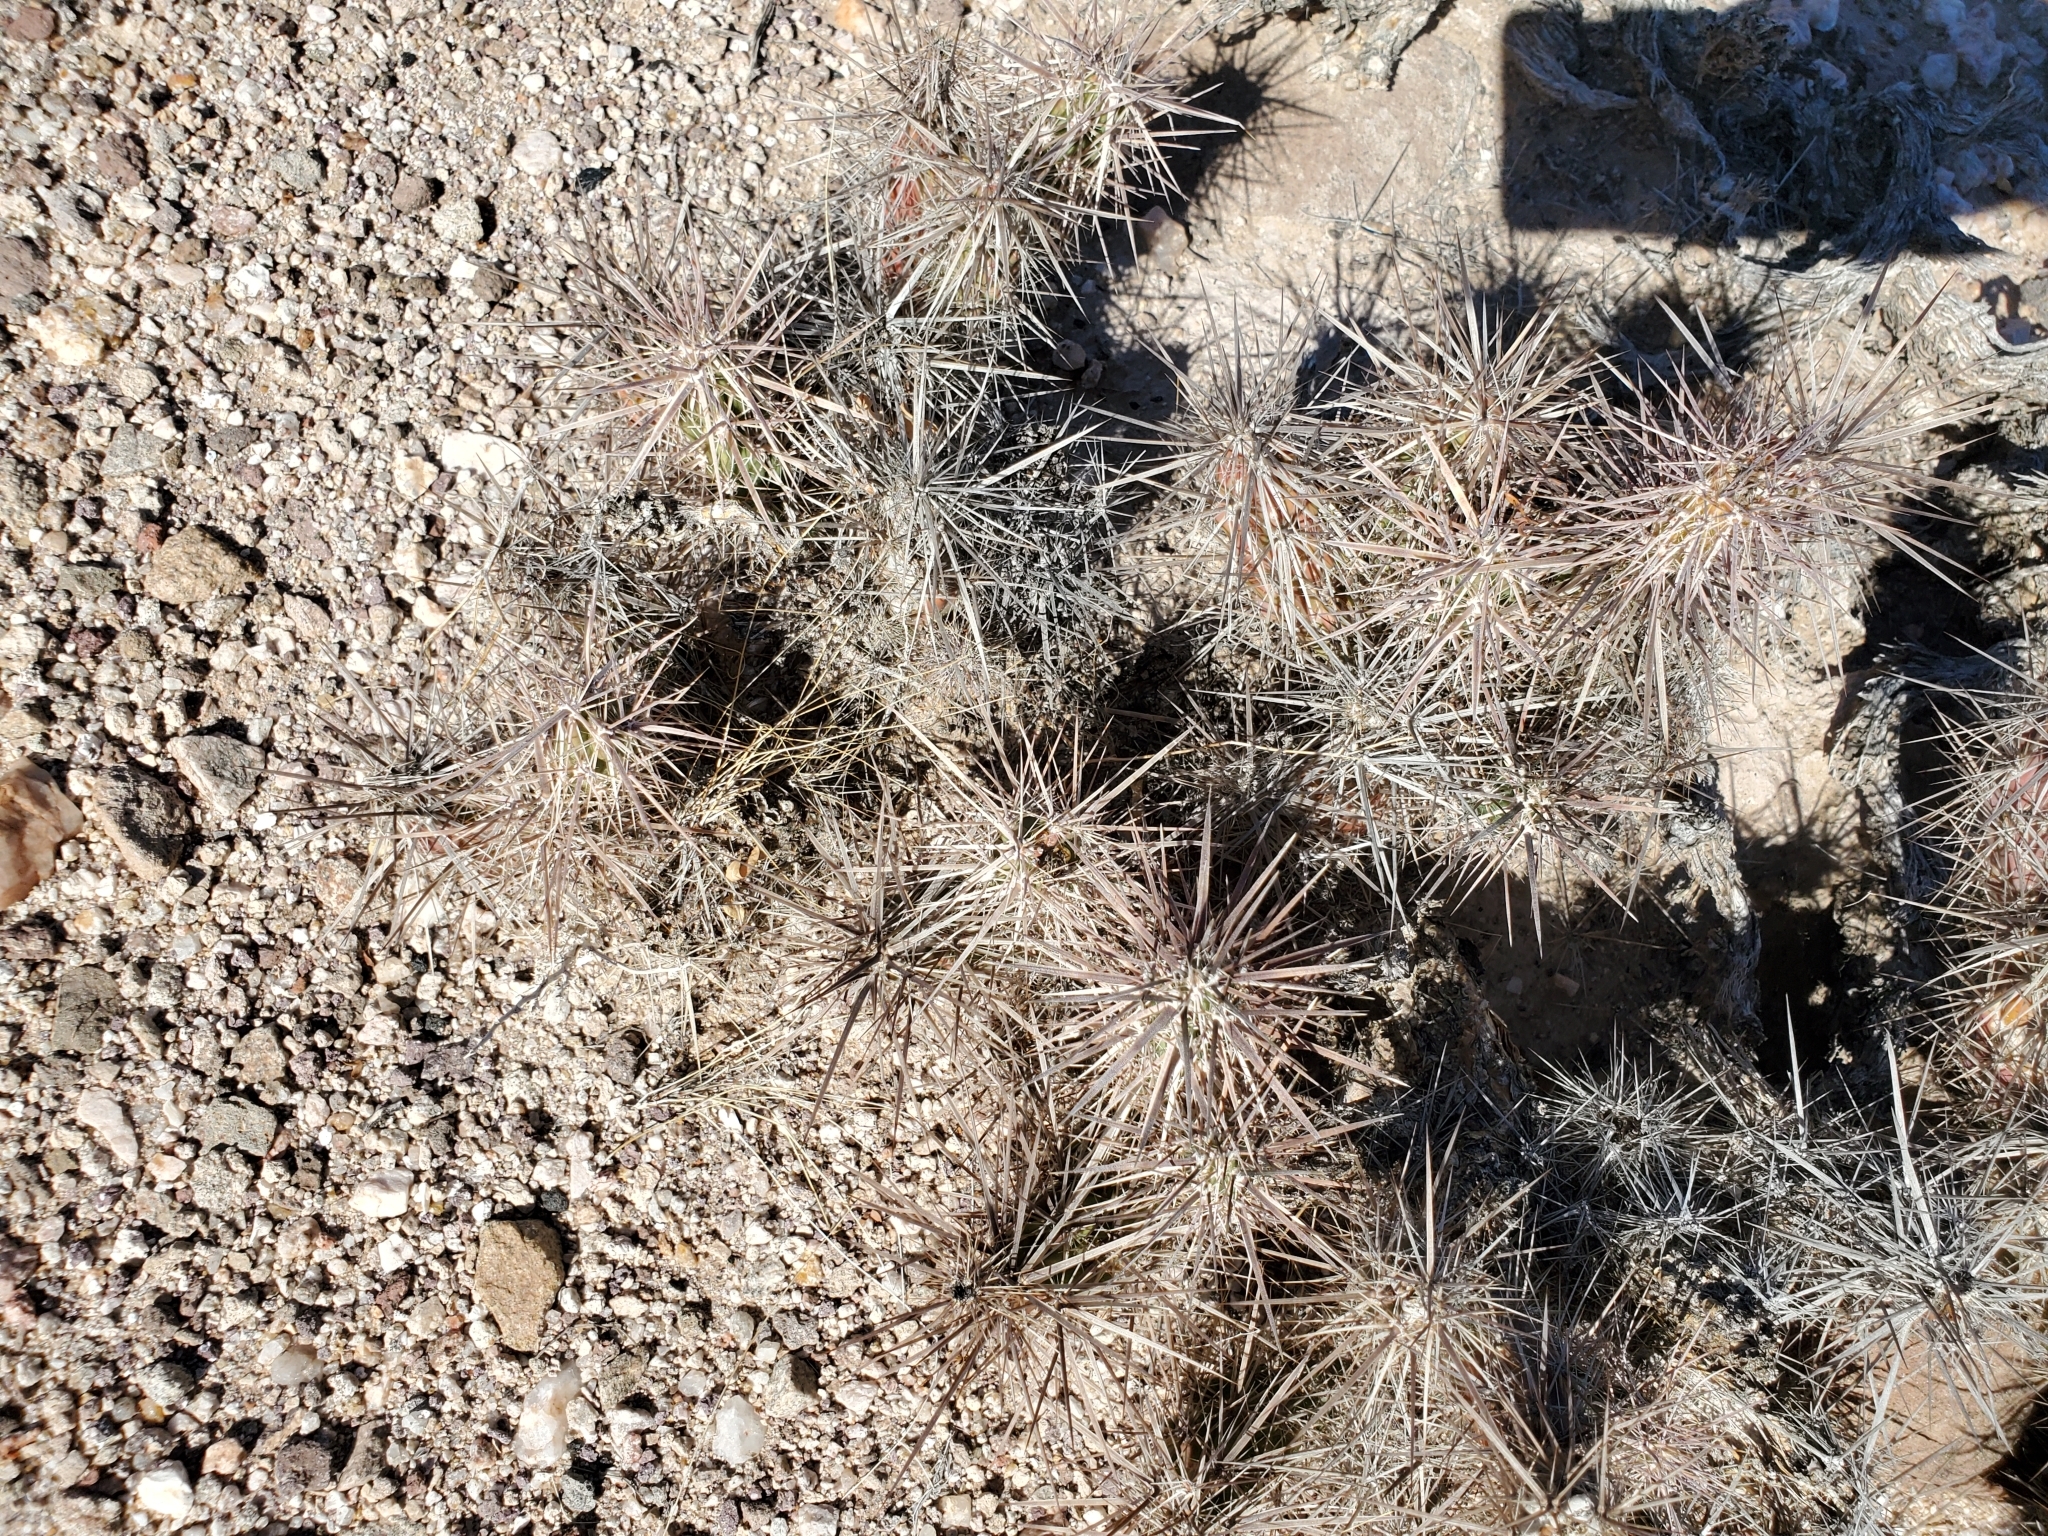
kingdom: Plantae
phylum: Tracheophyta
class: Magnoliopsida
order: Caryophyllales
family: Cactaceae
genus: Grusonia
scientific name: Grusonia kunzei
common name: Wright's club cholla
